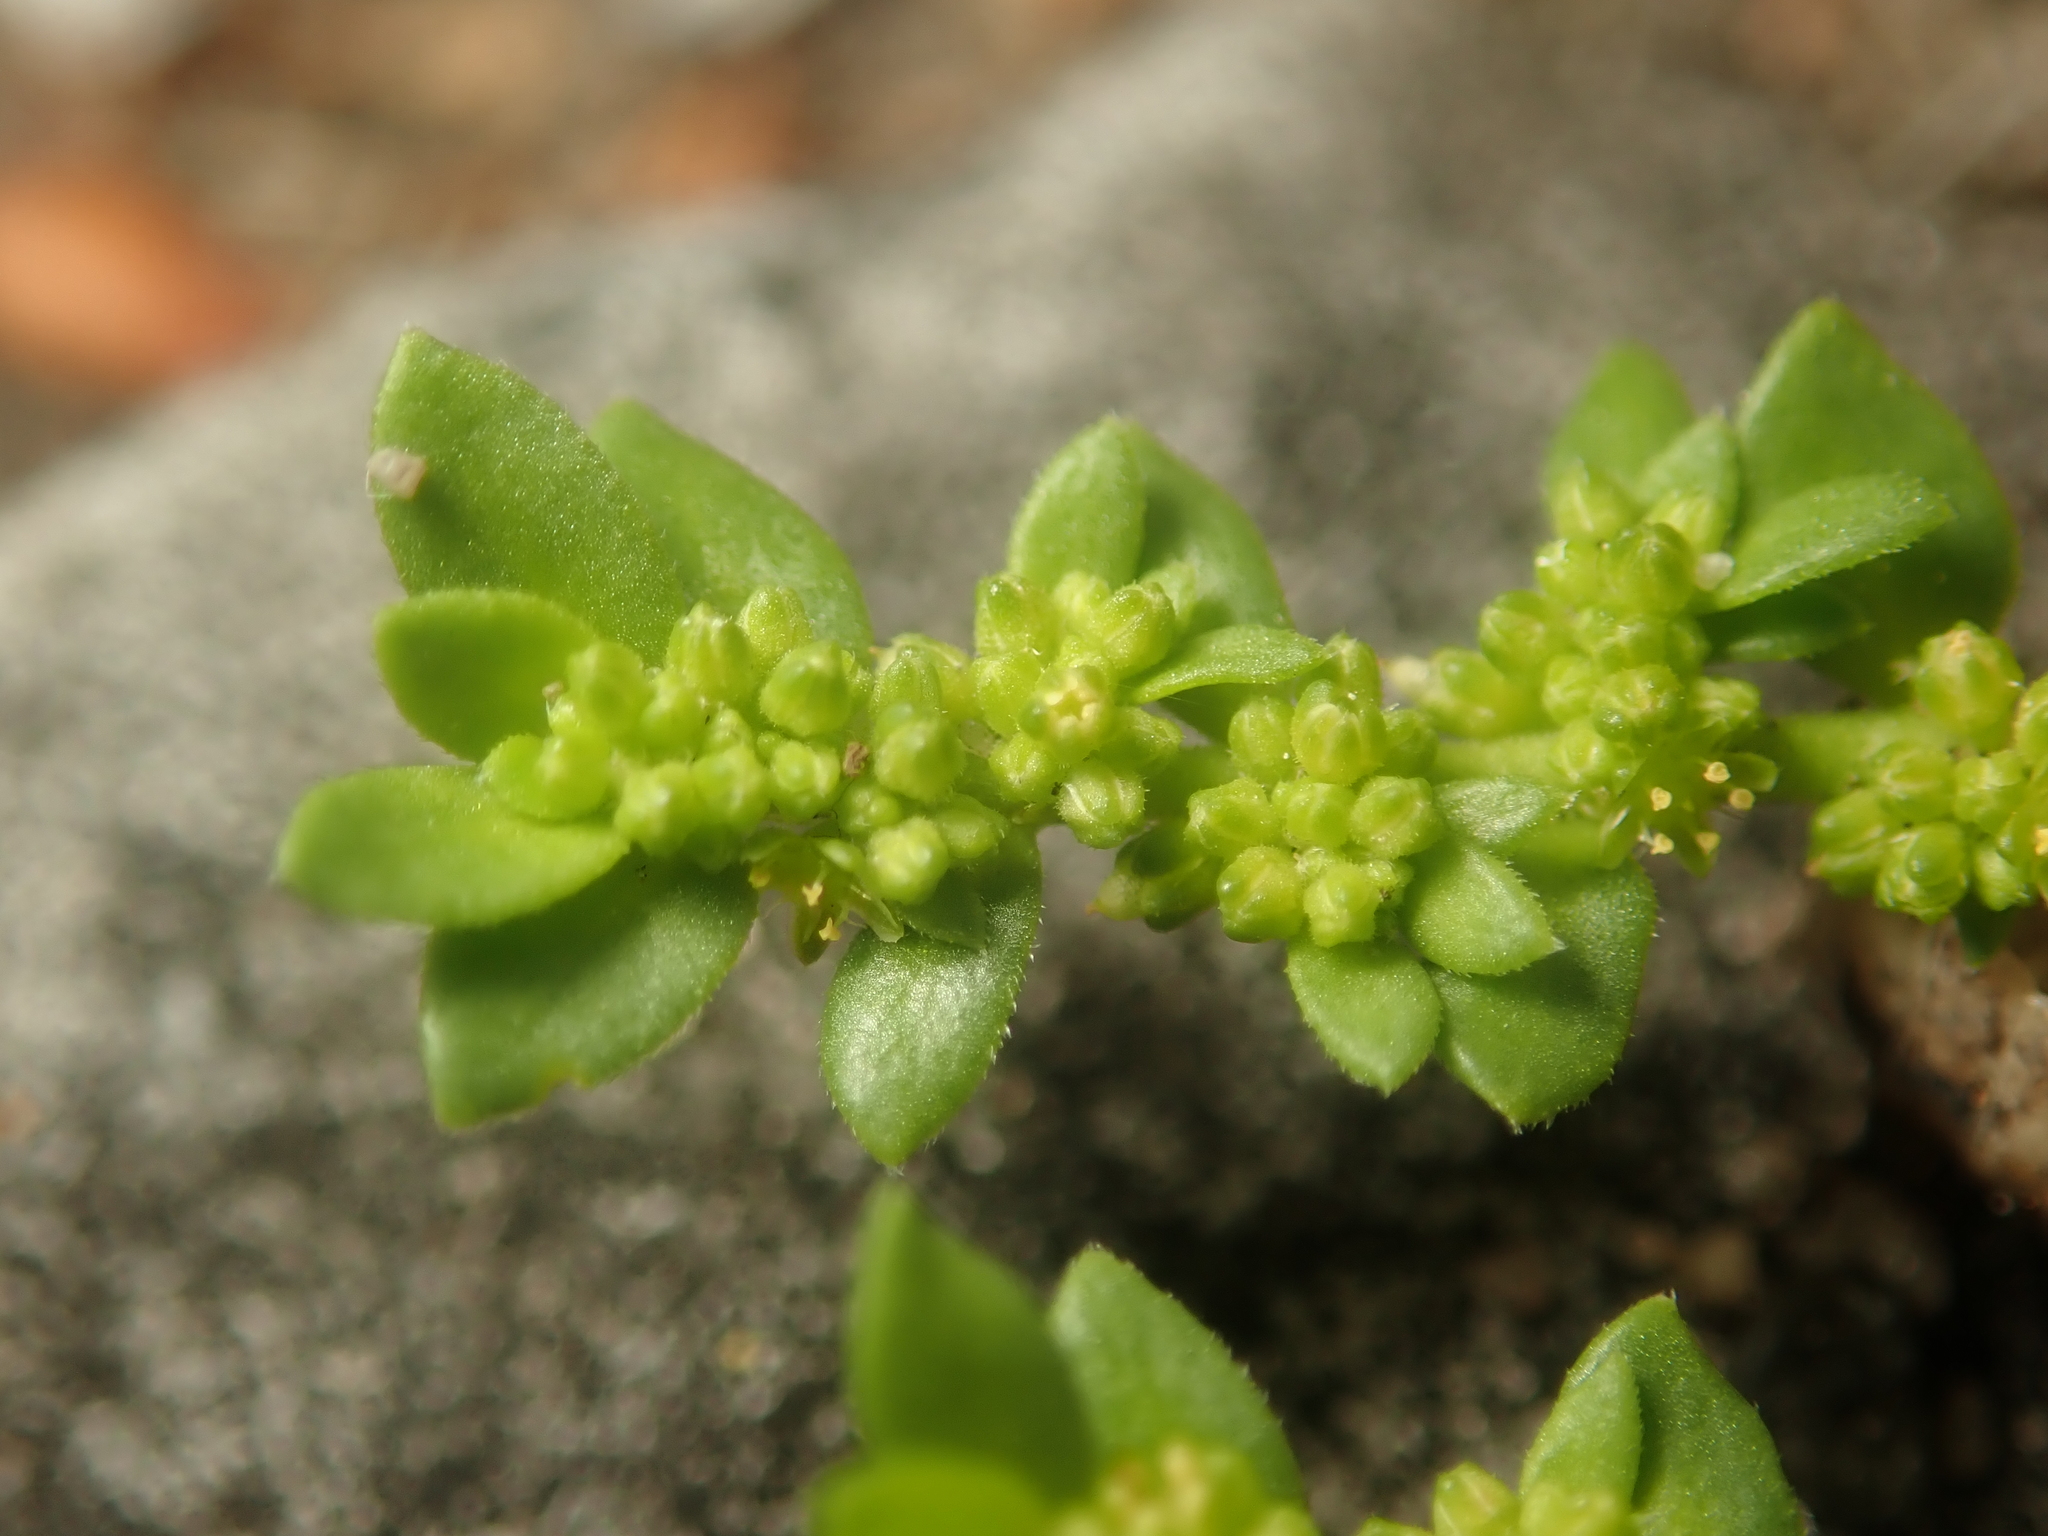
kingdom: Plantae
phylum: Tracheophyta
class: Magnoliopsida
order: Caryophyllales
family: Caryophyllaceae
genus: Herniaria
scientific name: Herniaria glabra
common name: Smooth rupturewort
